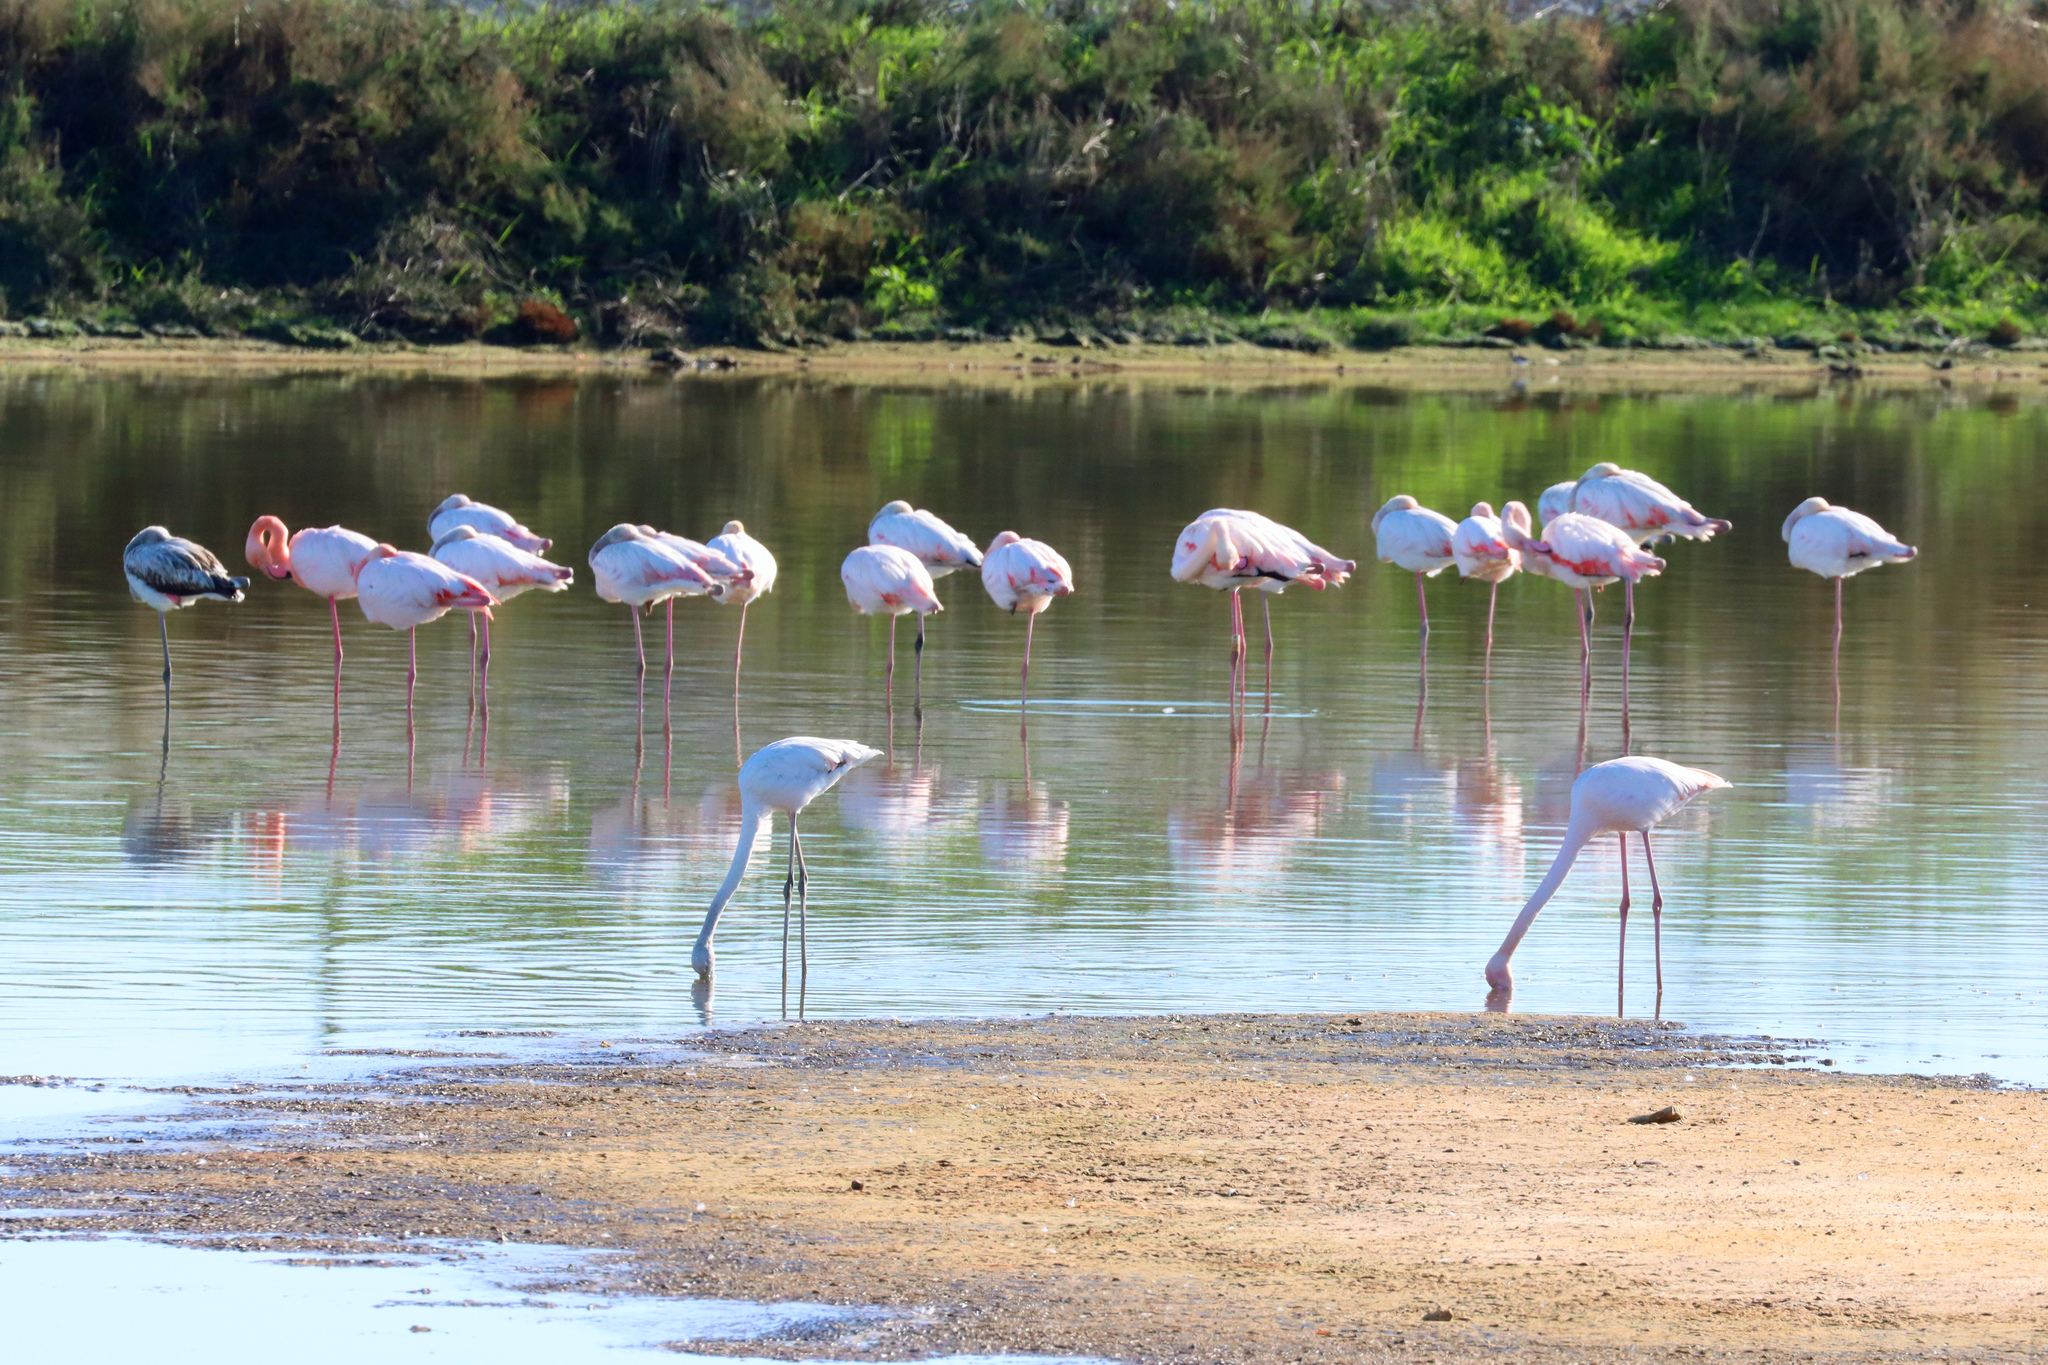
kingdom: Animalia
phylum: Chordata
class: Aves
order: Phoenicopteriformes
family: Phoenicopteridae
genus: Phoenicopterus
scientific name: Phoenicopterus roseus
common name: Greater flamingo
